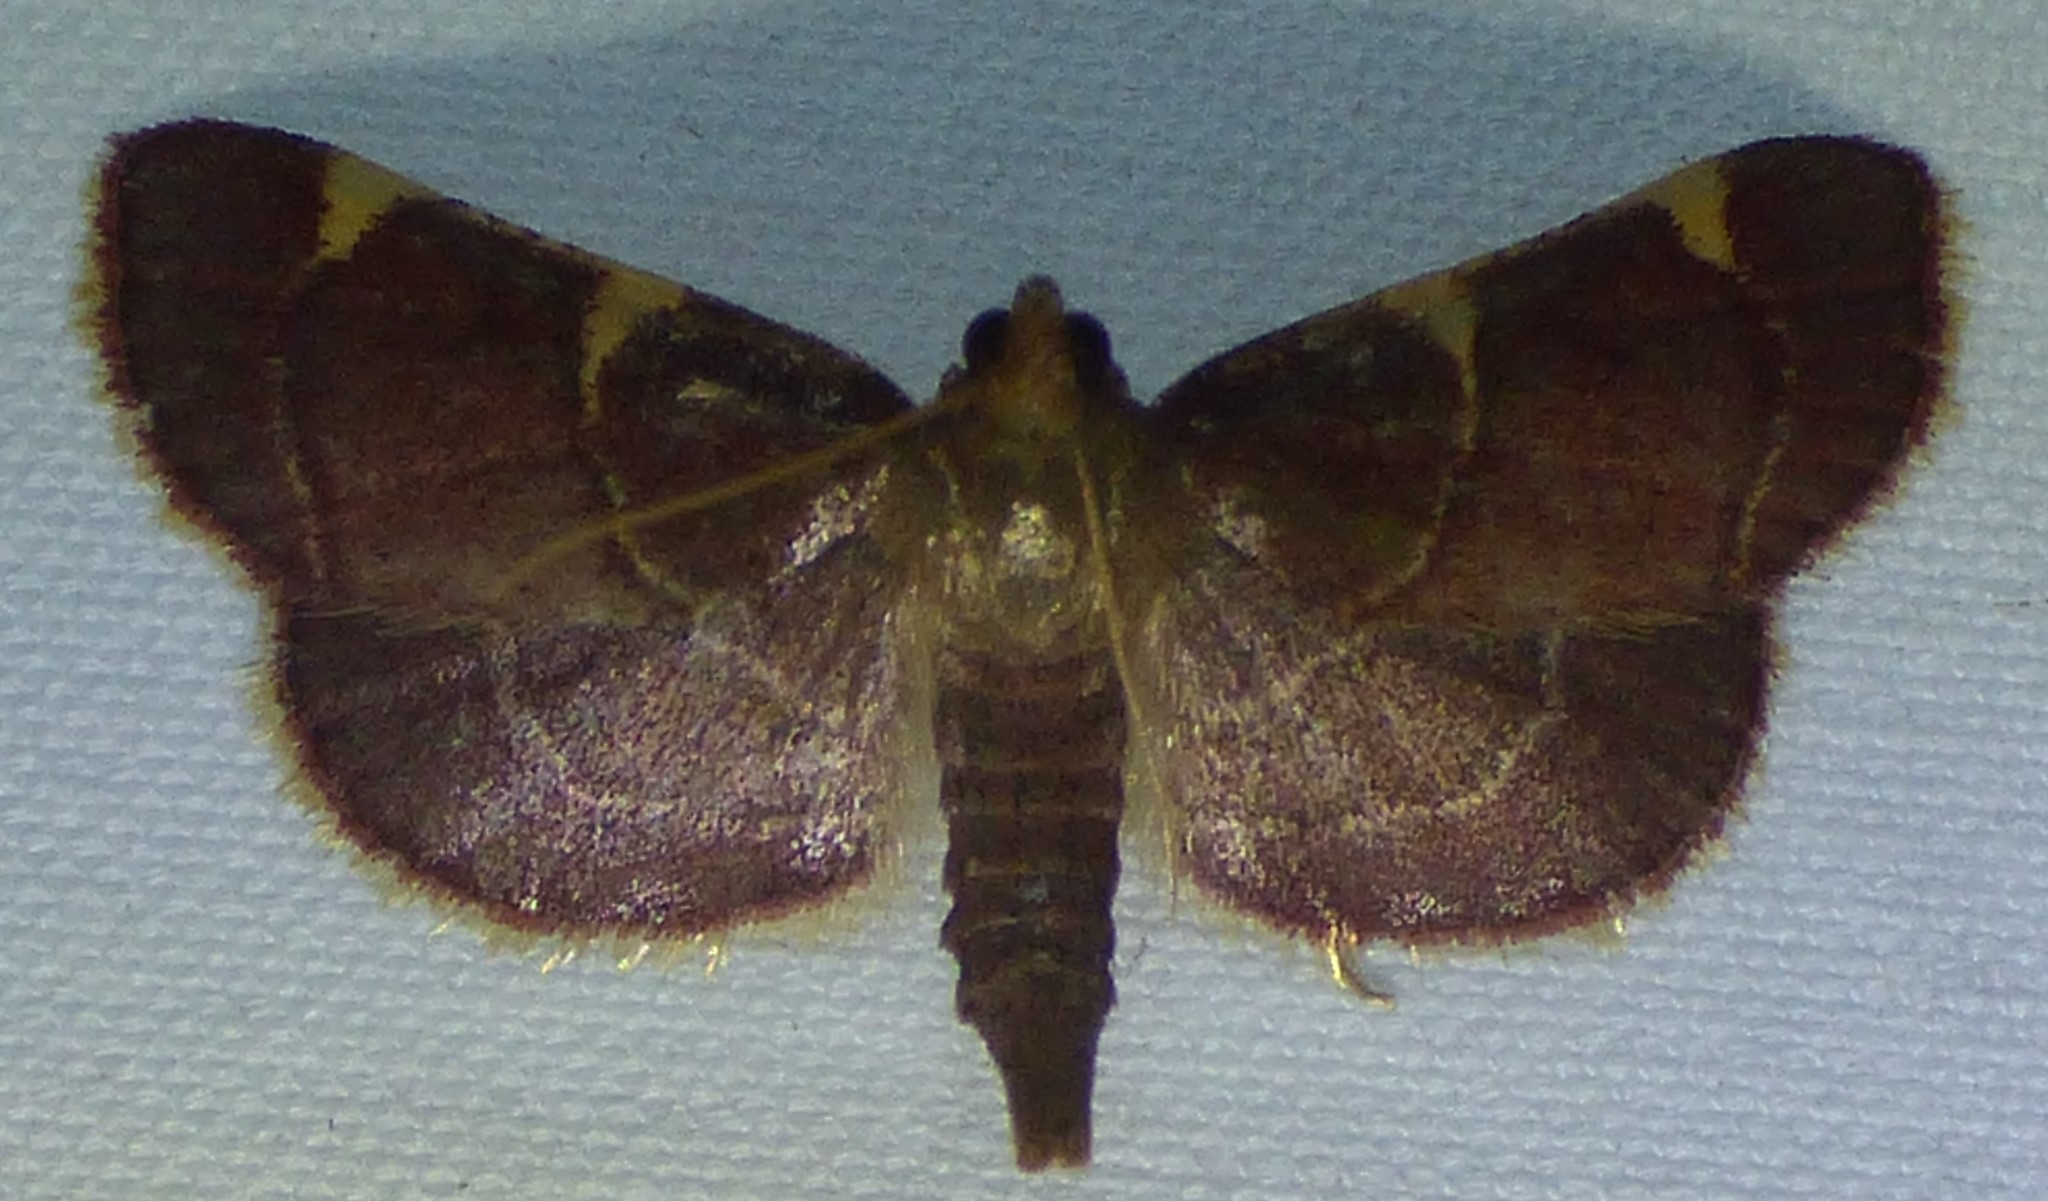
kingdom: Animalia
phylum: Arthropoda
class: Insecta
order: Lepidoptera
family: Pyralidae
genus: Hypsopygia
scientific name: Hypsopygia olinalis
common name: Yellow-fringed dolichomia moth
